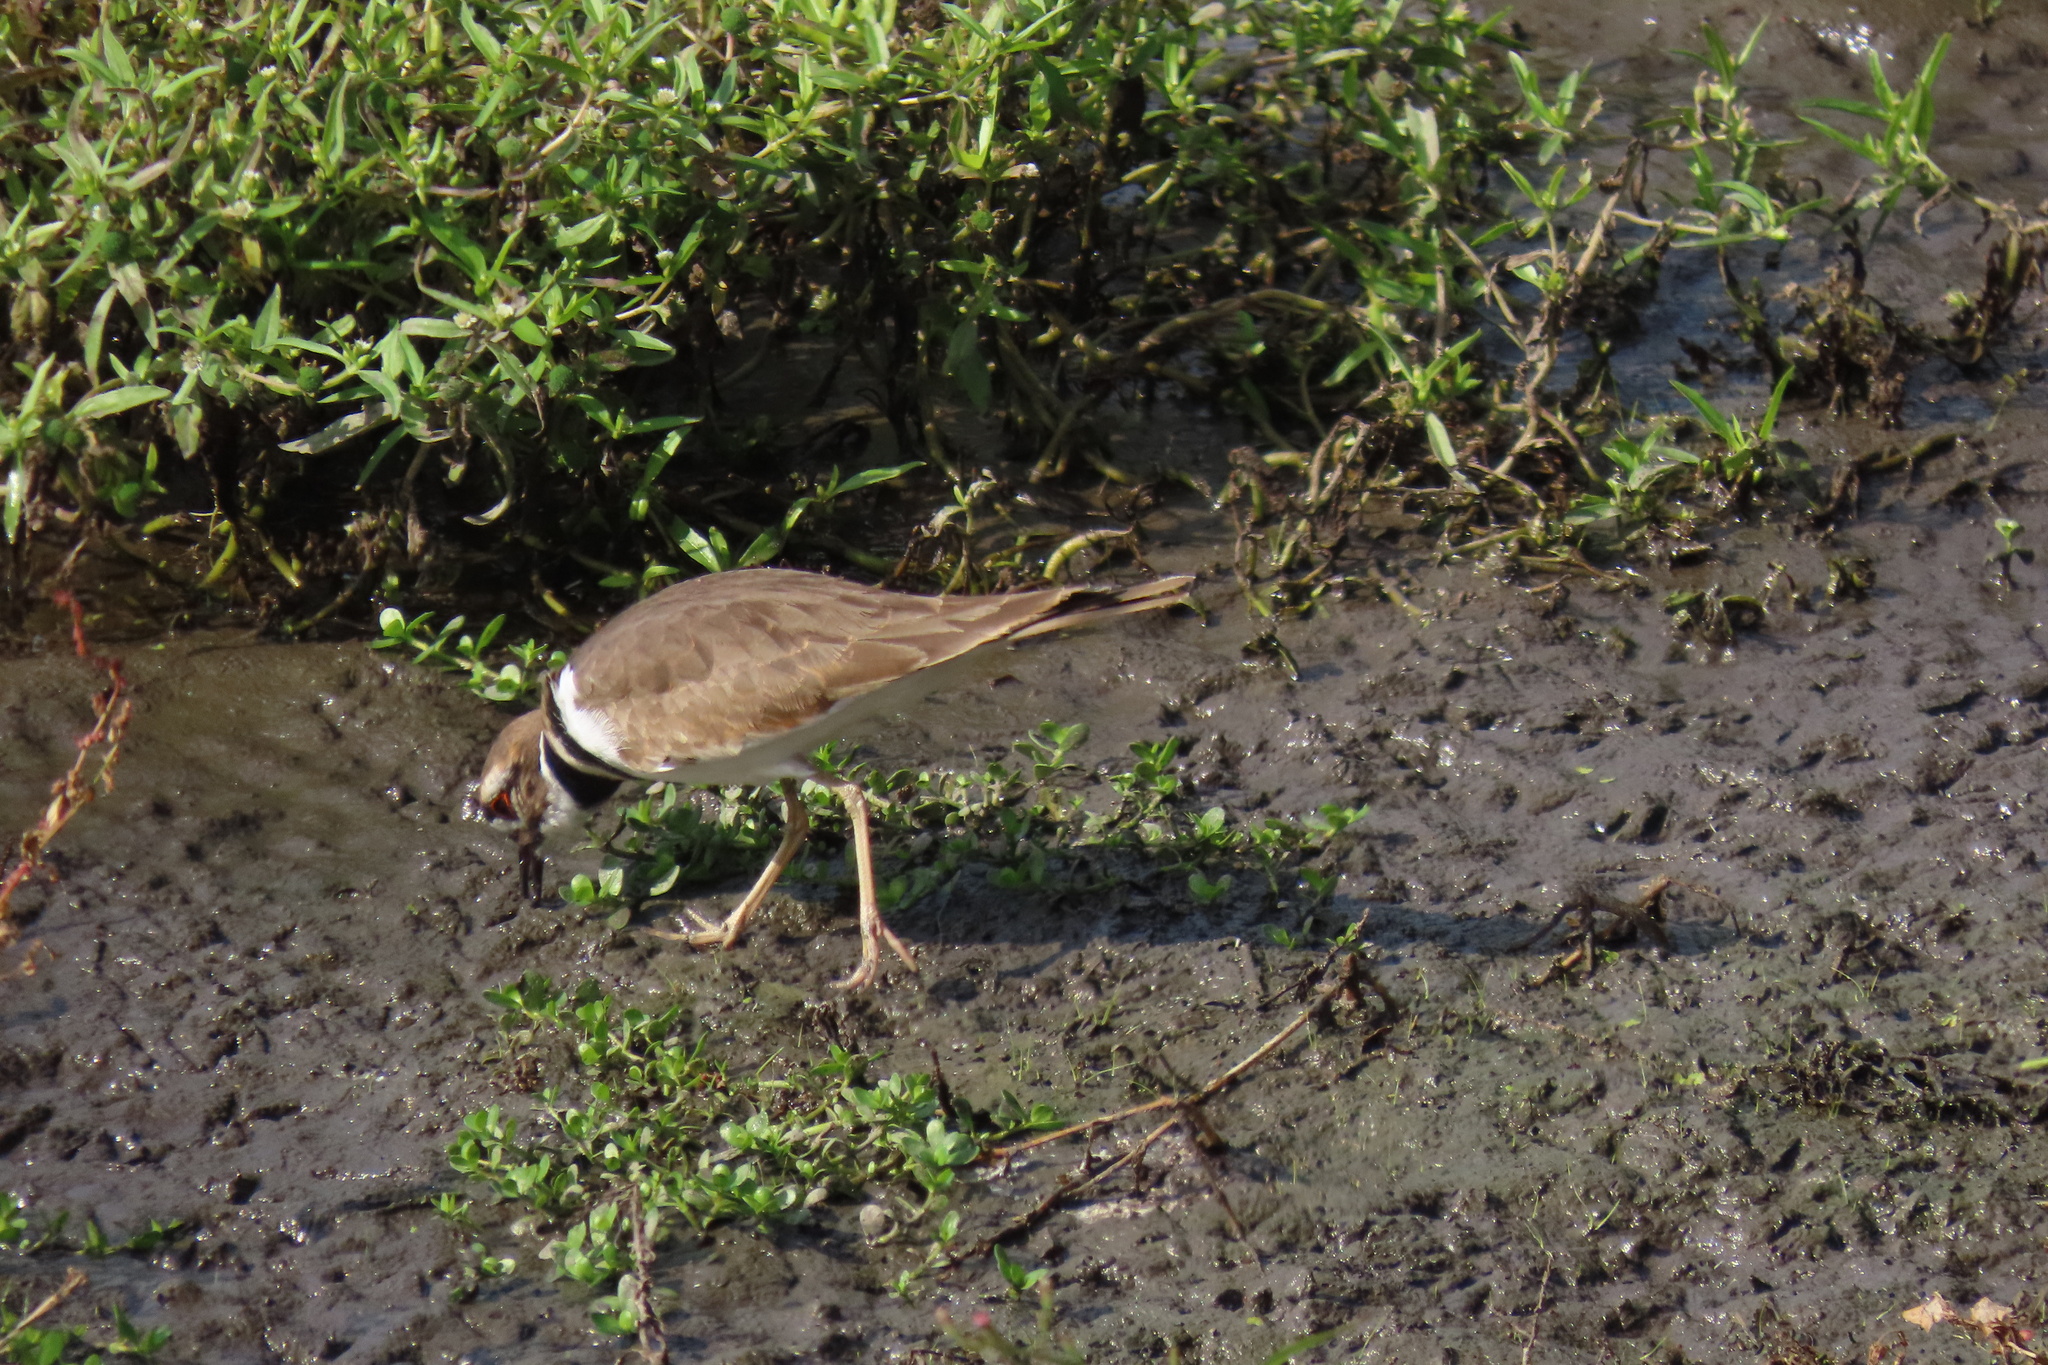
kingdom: Animalia
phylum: Chordata
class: Aves
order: Charadriiformes
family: Charadriidae
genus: Charadrius
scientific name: Charadrius vociferus
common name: Killdeer
